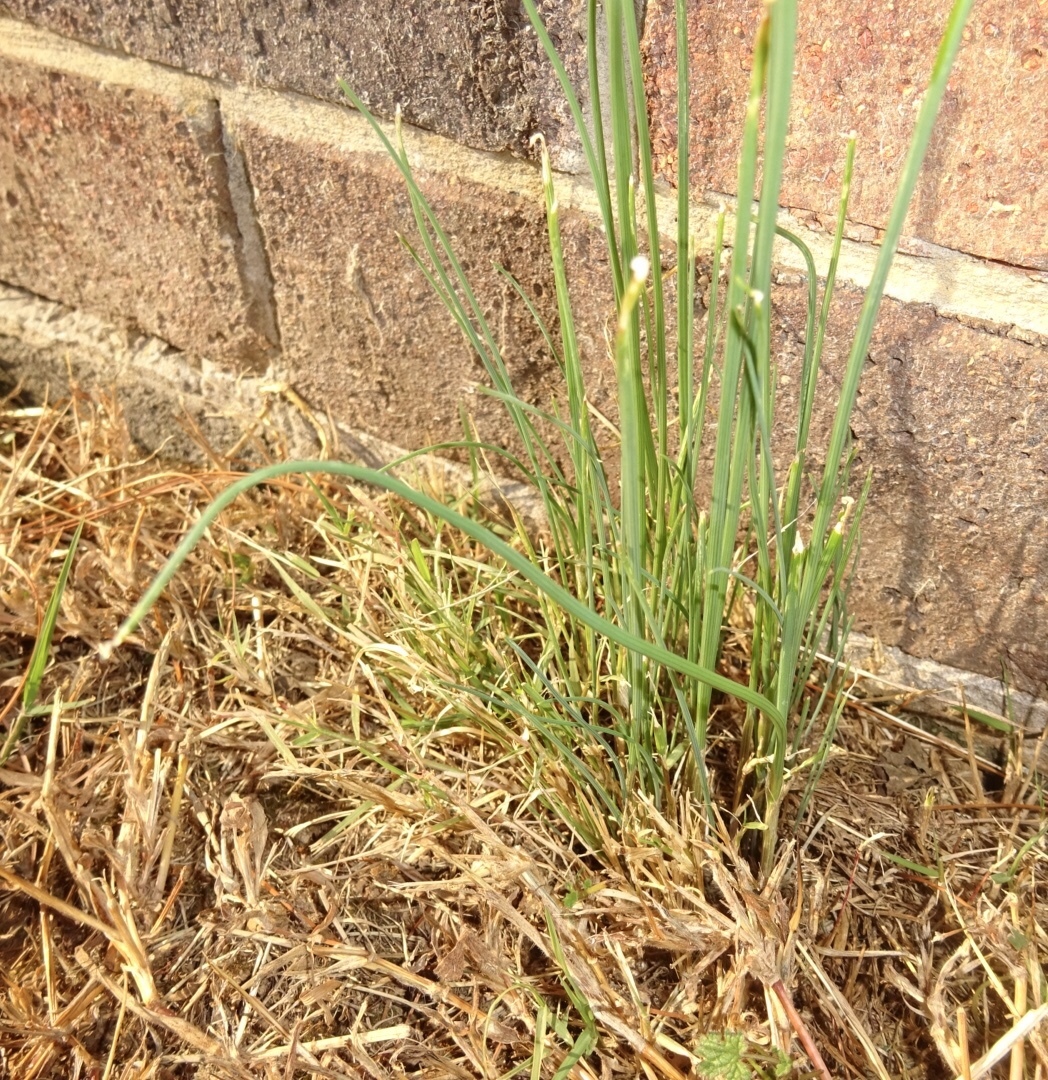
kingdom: Plantae
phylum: Tracheophyta
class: Liliopsida
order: Asparagales
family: Amaryllidaceae
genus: Allium
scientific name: Allium vineale
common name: Crow garlic
